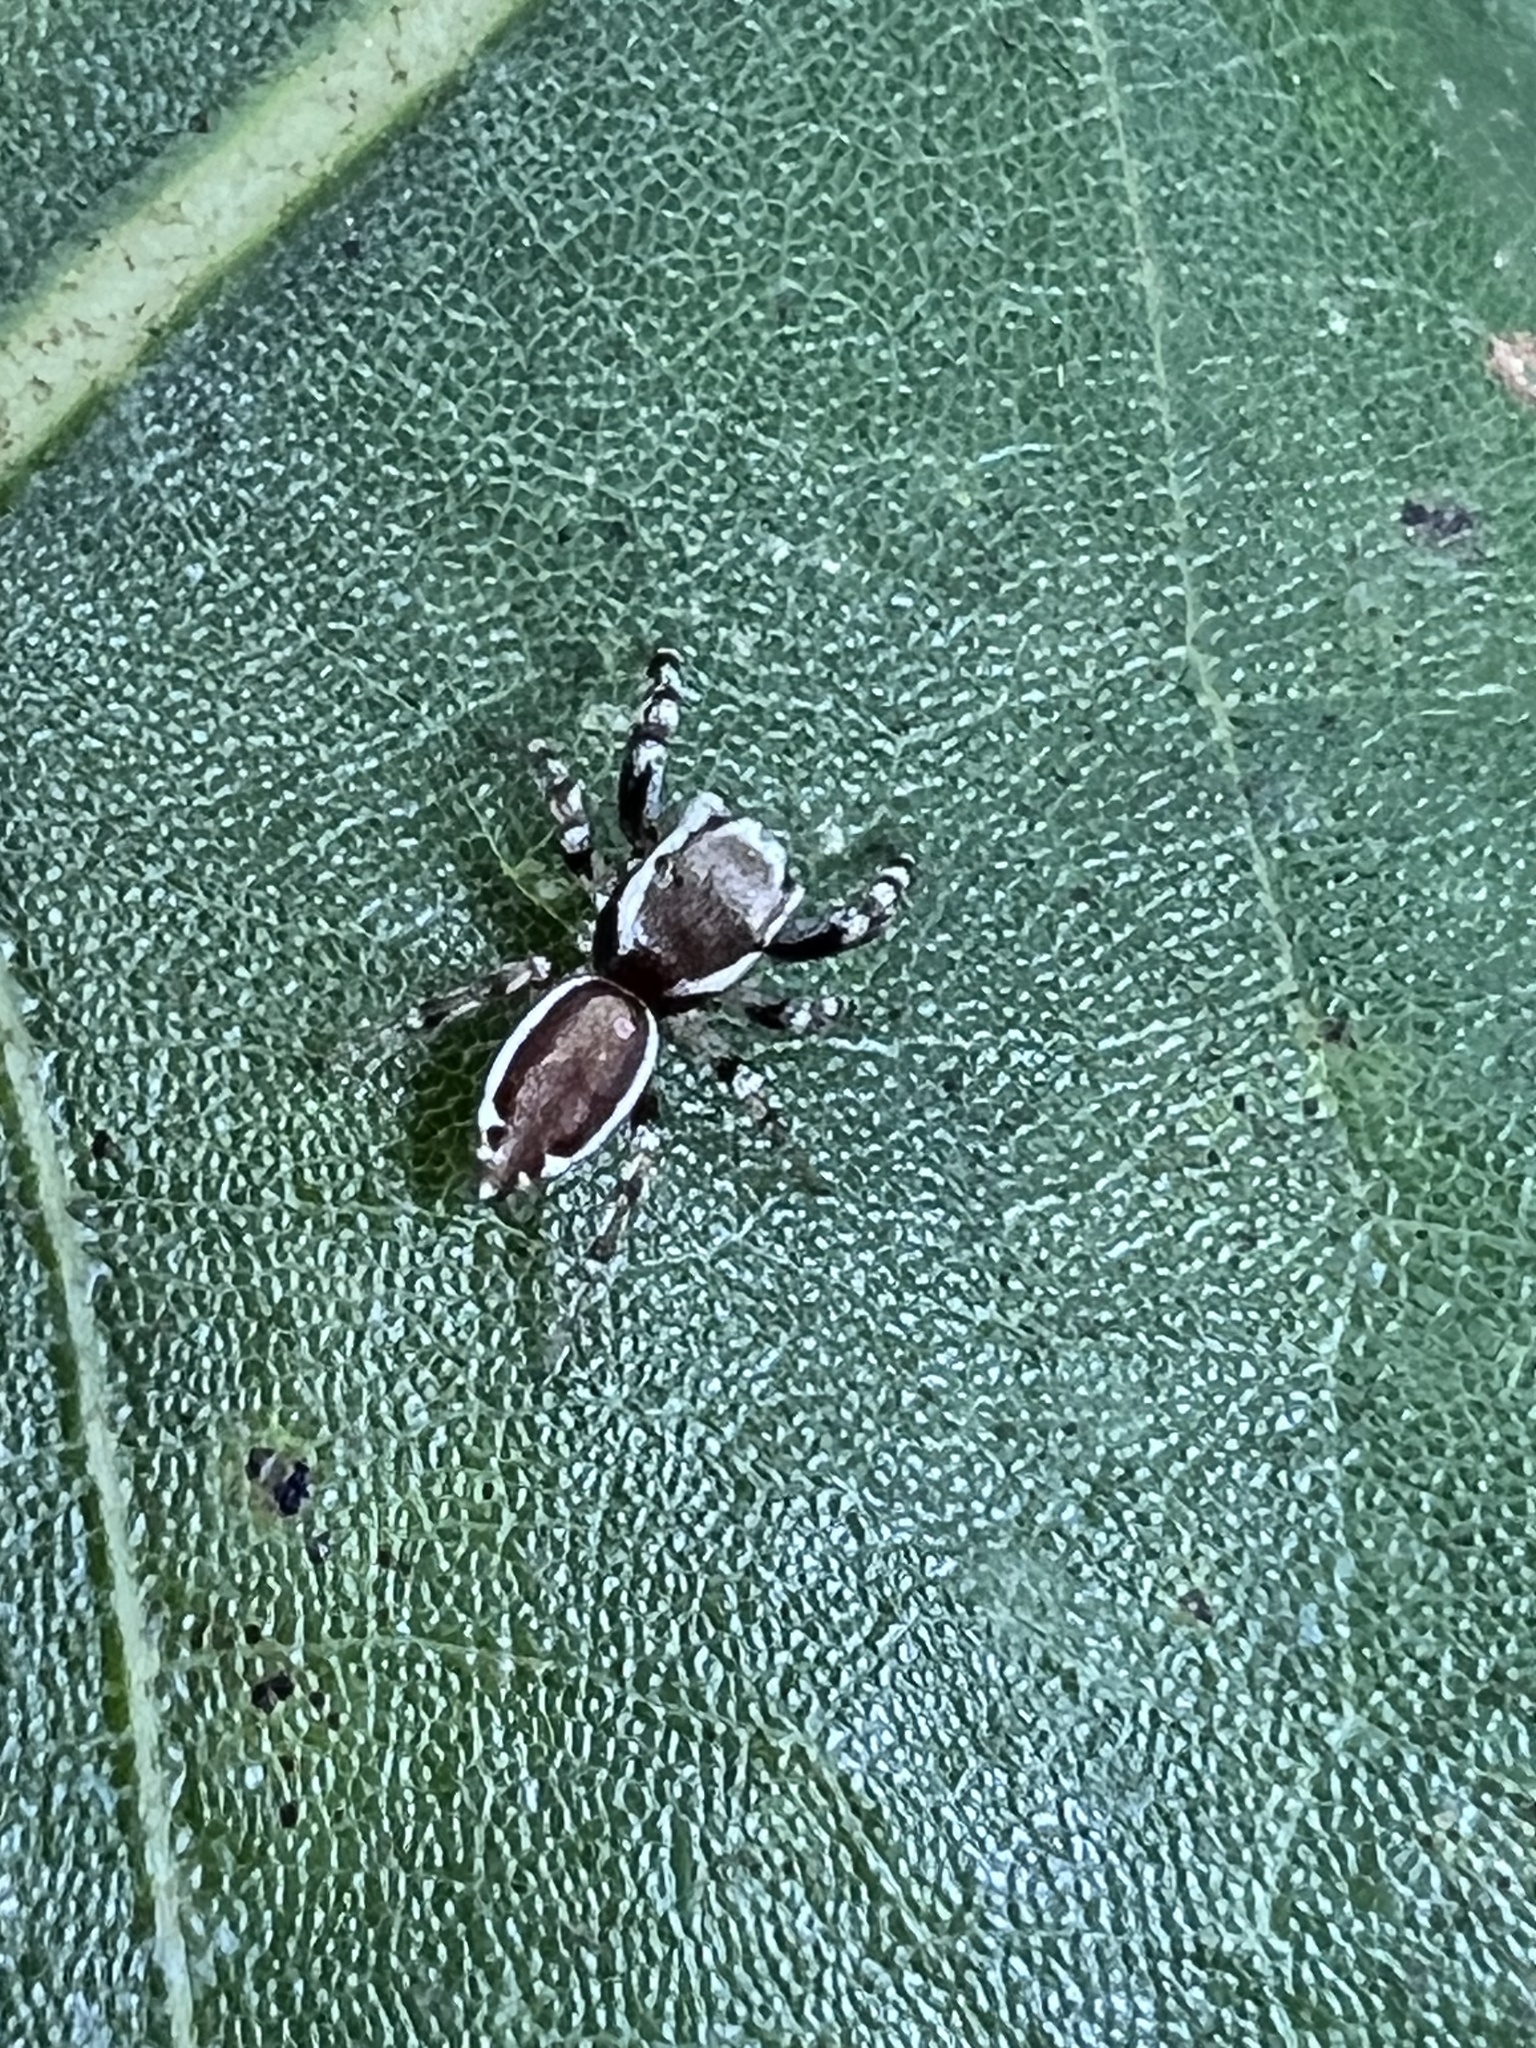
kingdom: Animalia
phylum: Arthropoda
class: Arachnida
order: Araneae
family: Salticidae
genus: Pelegrina
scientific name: Pelegrina proterva
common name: Common white-cheeked jumping spider
